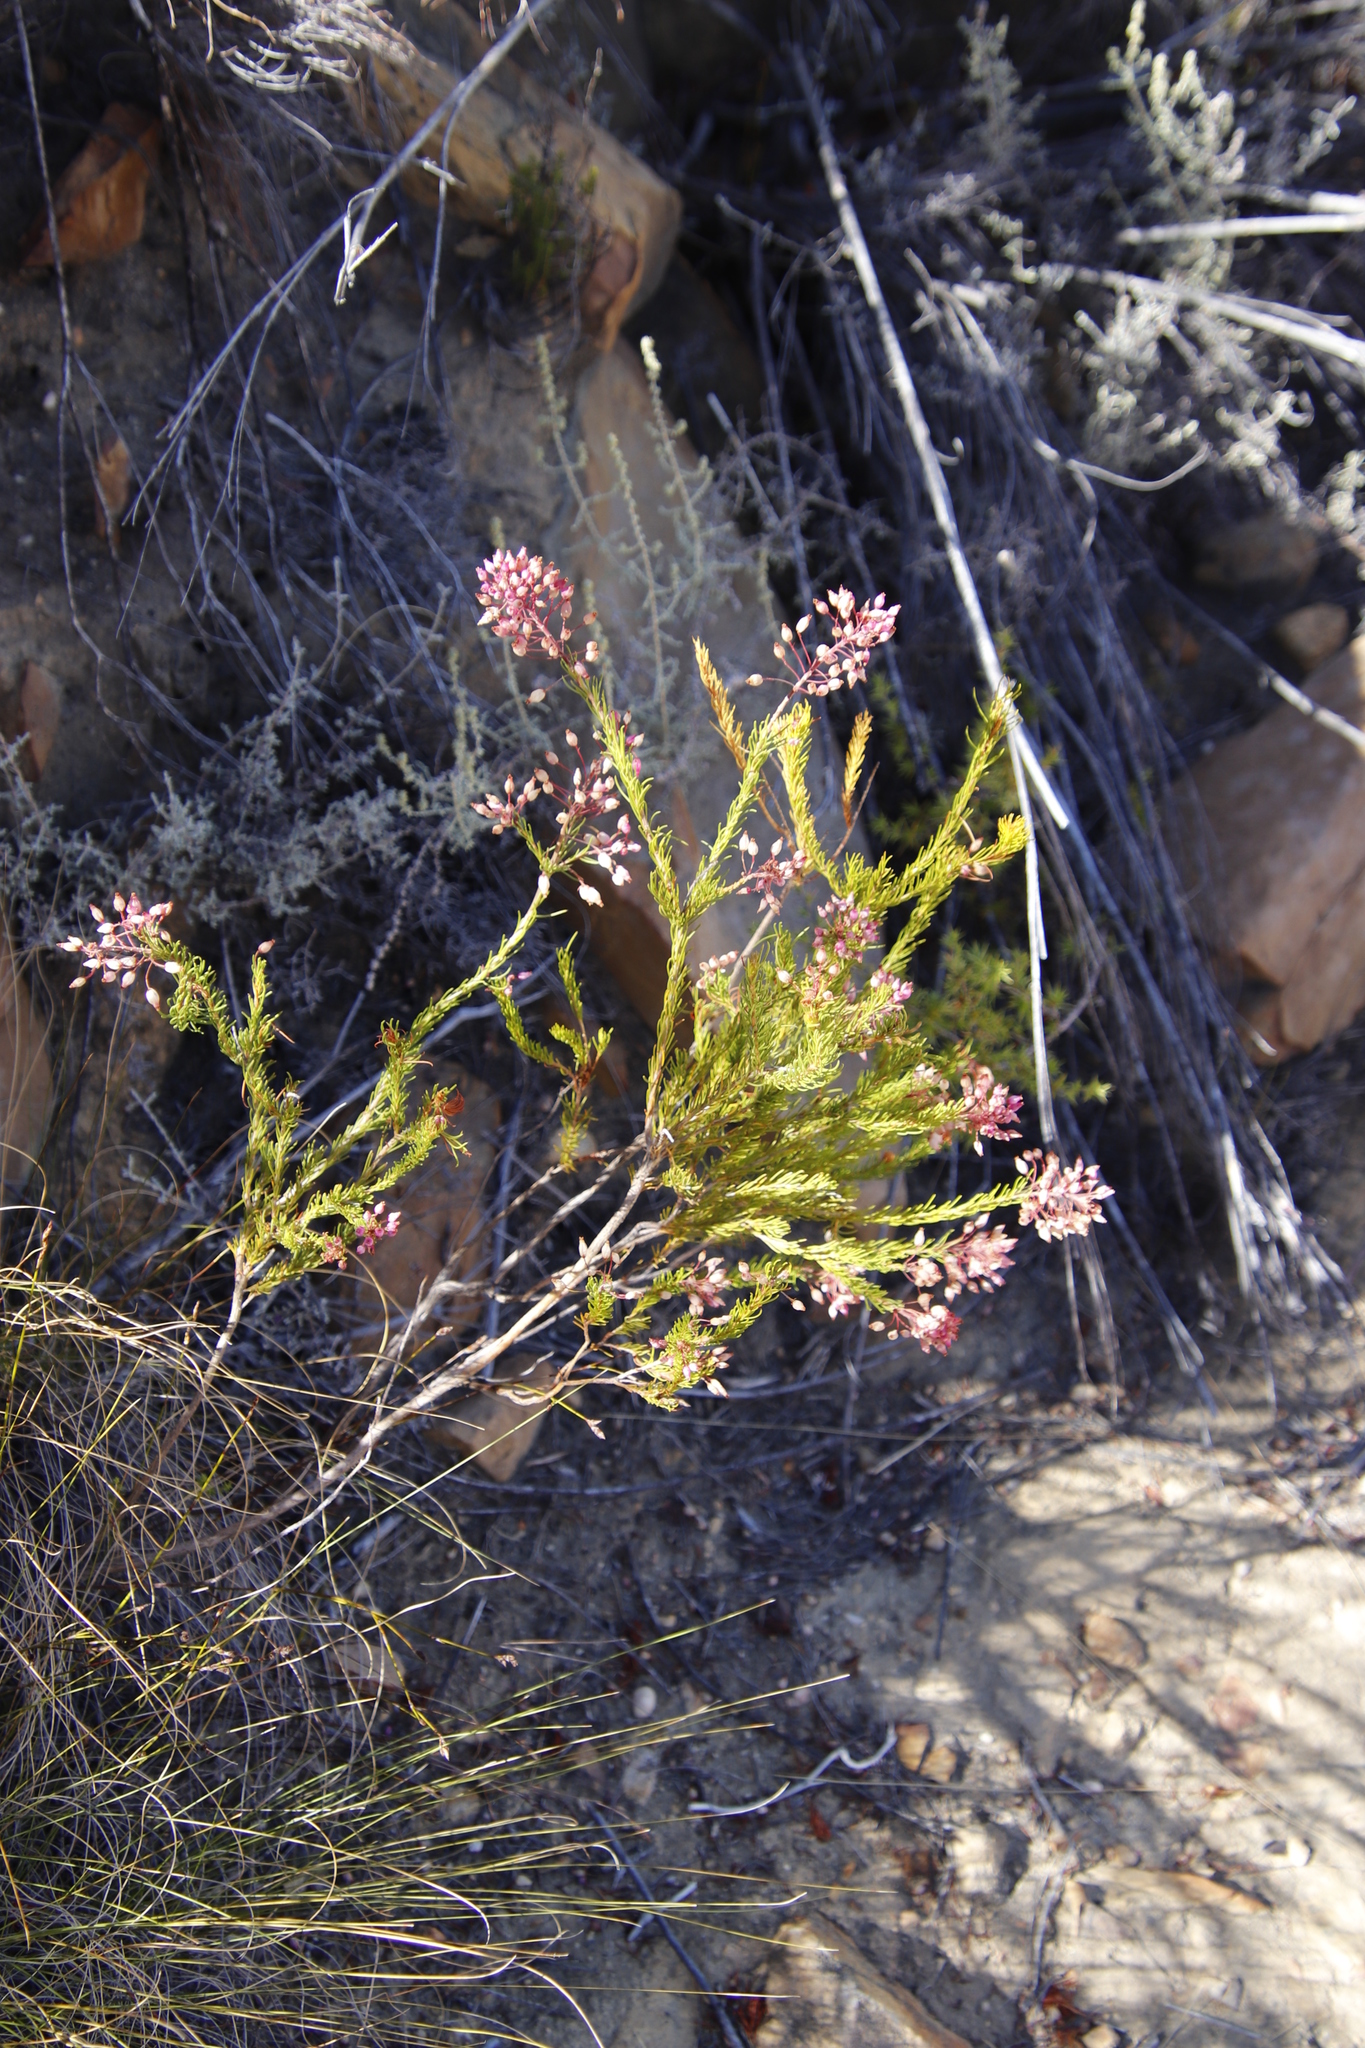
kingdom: Plantae
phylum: Tracheophyta
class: Magnoliopsida
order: Ericales
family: Ericaceae
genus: Erica
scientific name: Erica inflata
